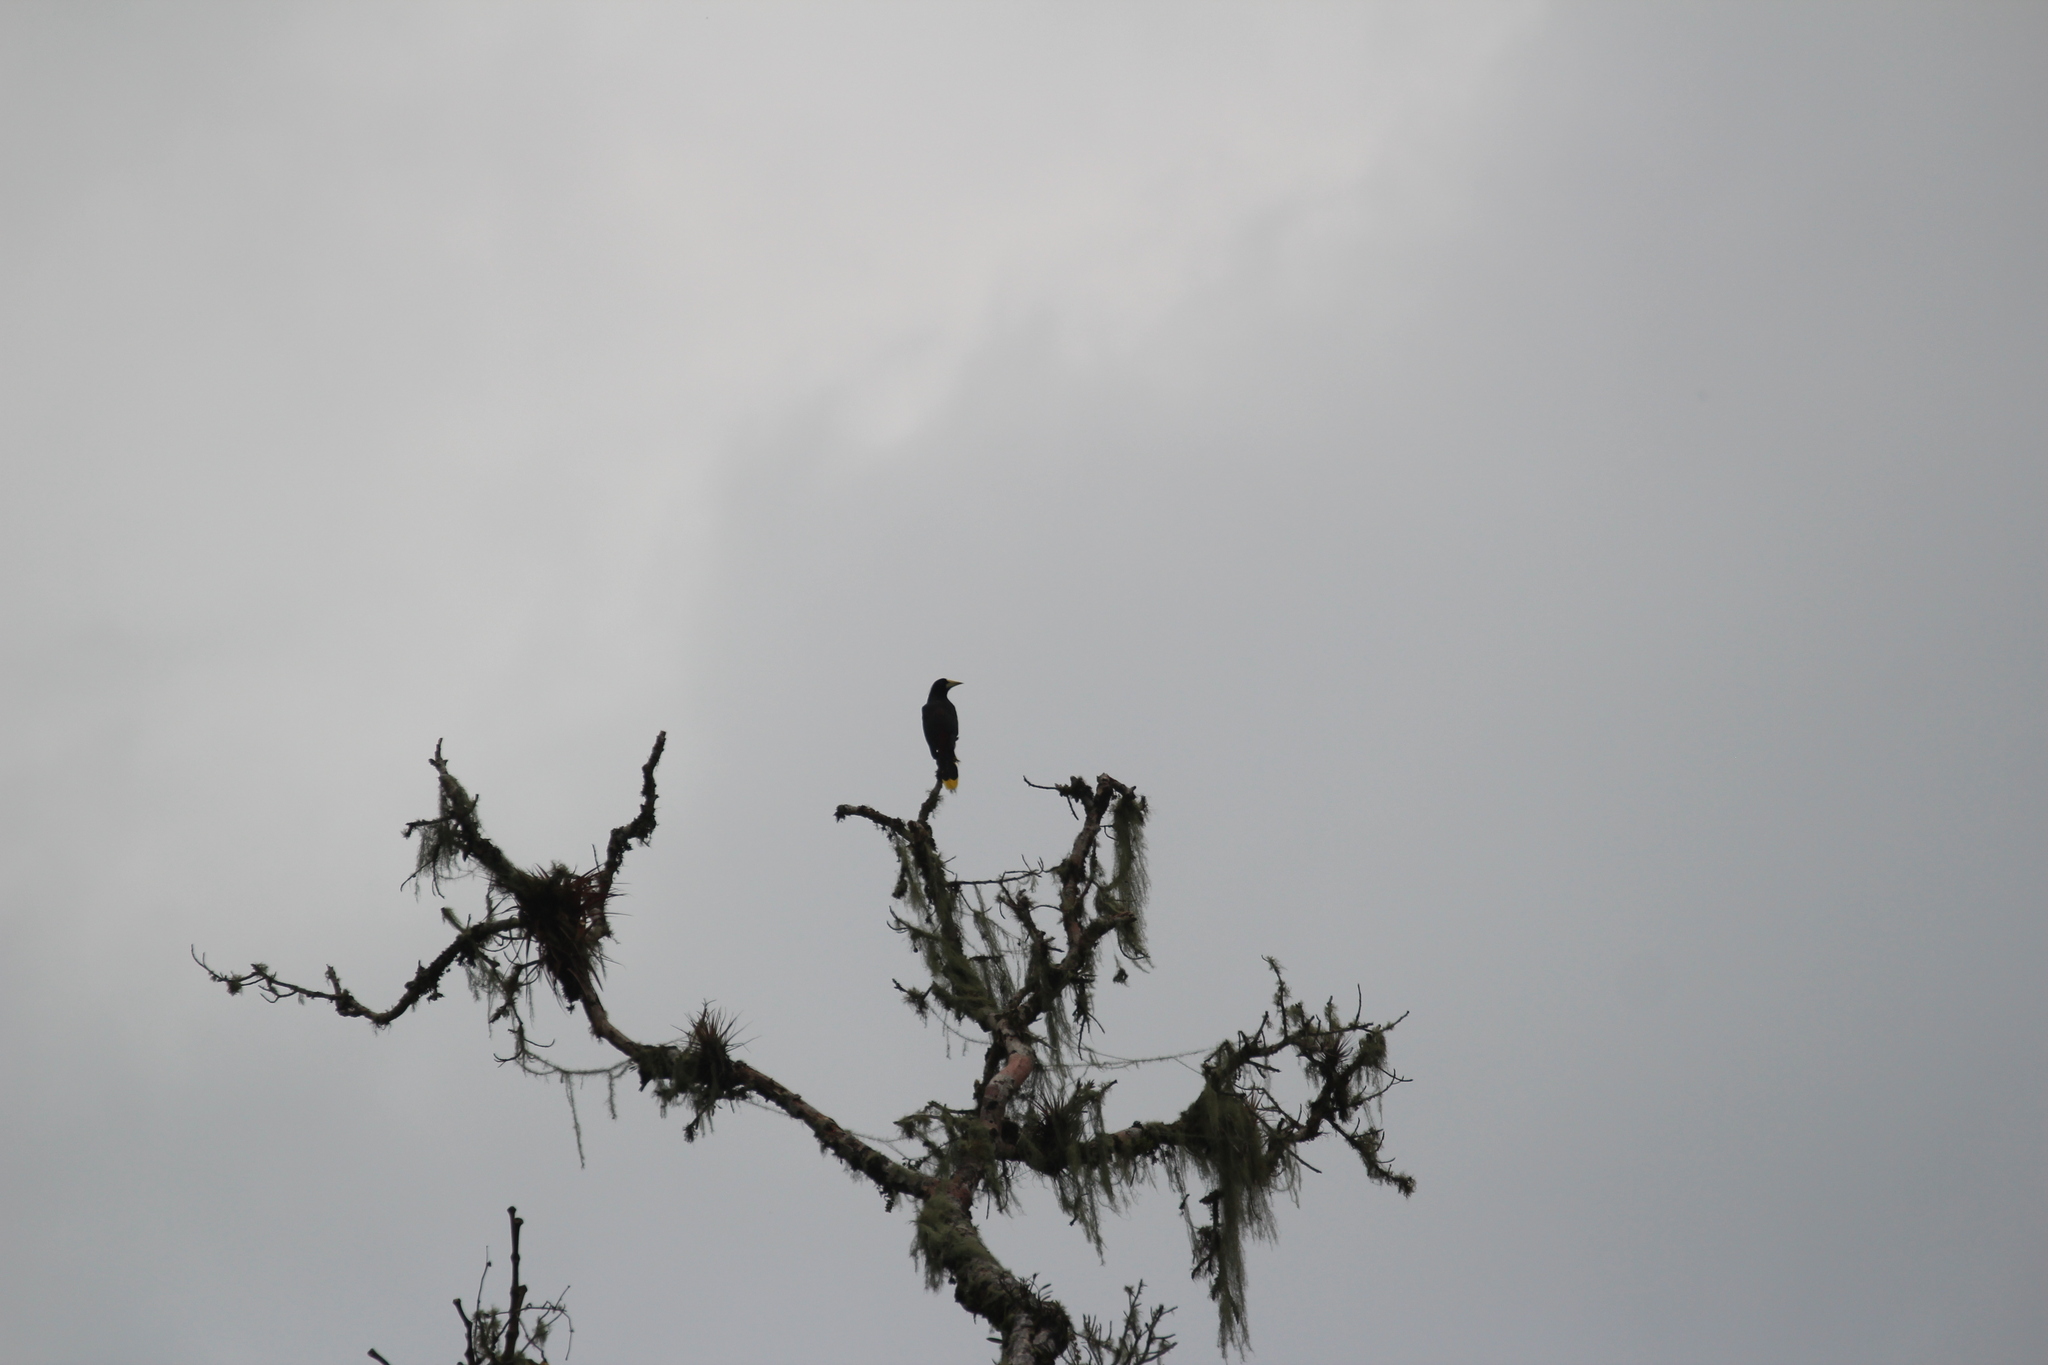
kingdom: Animalia
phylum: Chordata
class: Aves
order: Passeriformes
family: Icteridae
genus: Psarocolius
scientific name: Psarocolius decumanus
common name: Crested oropendola
